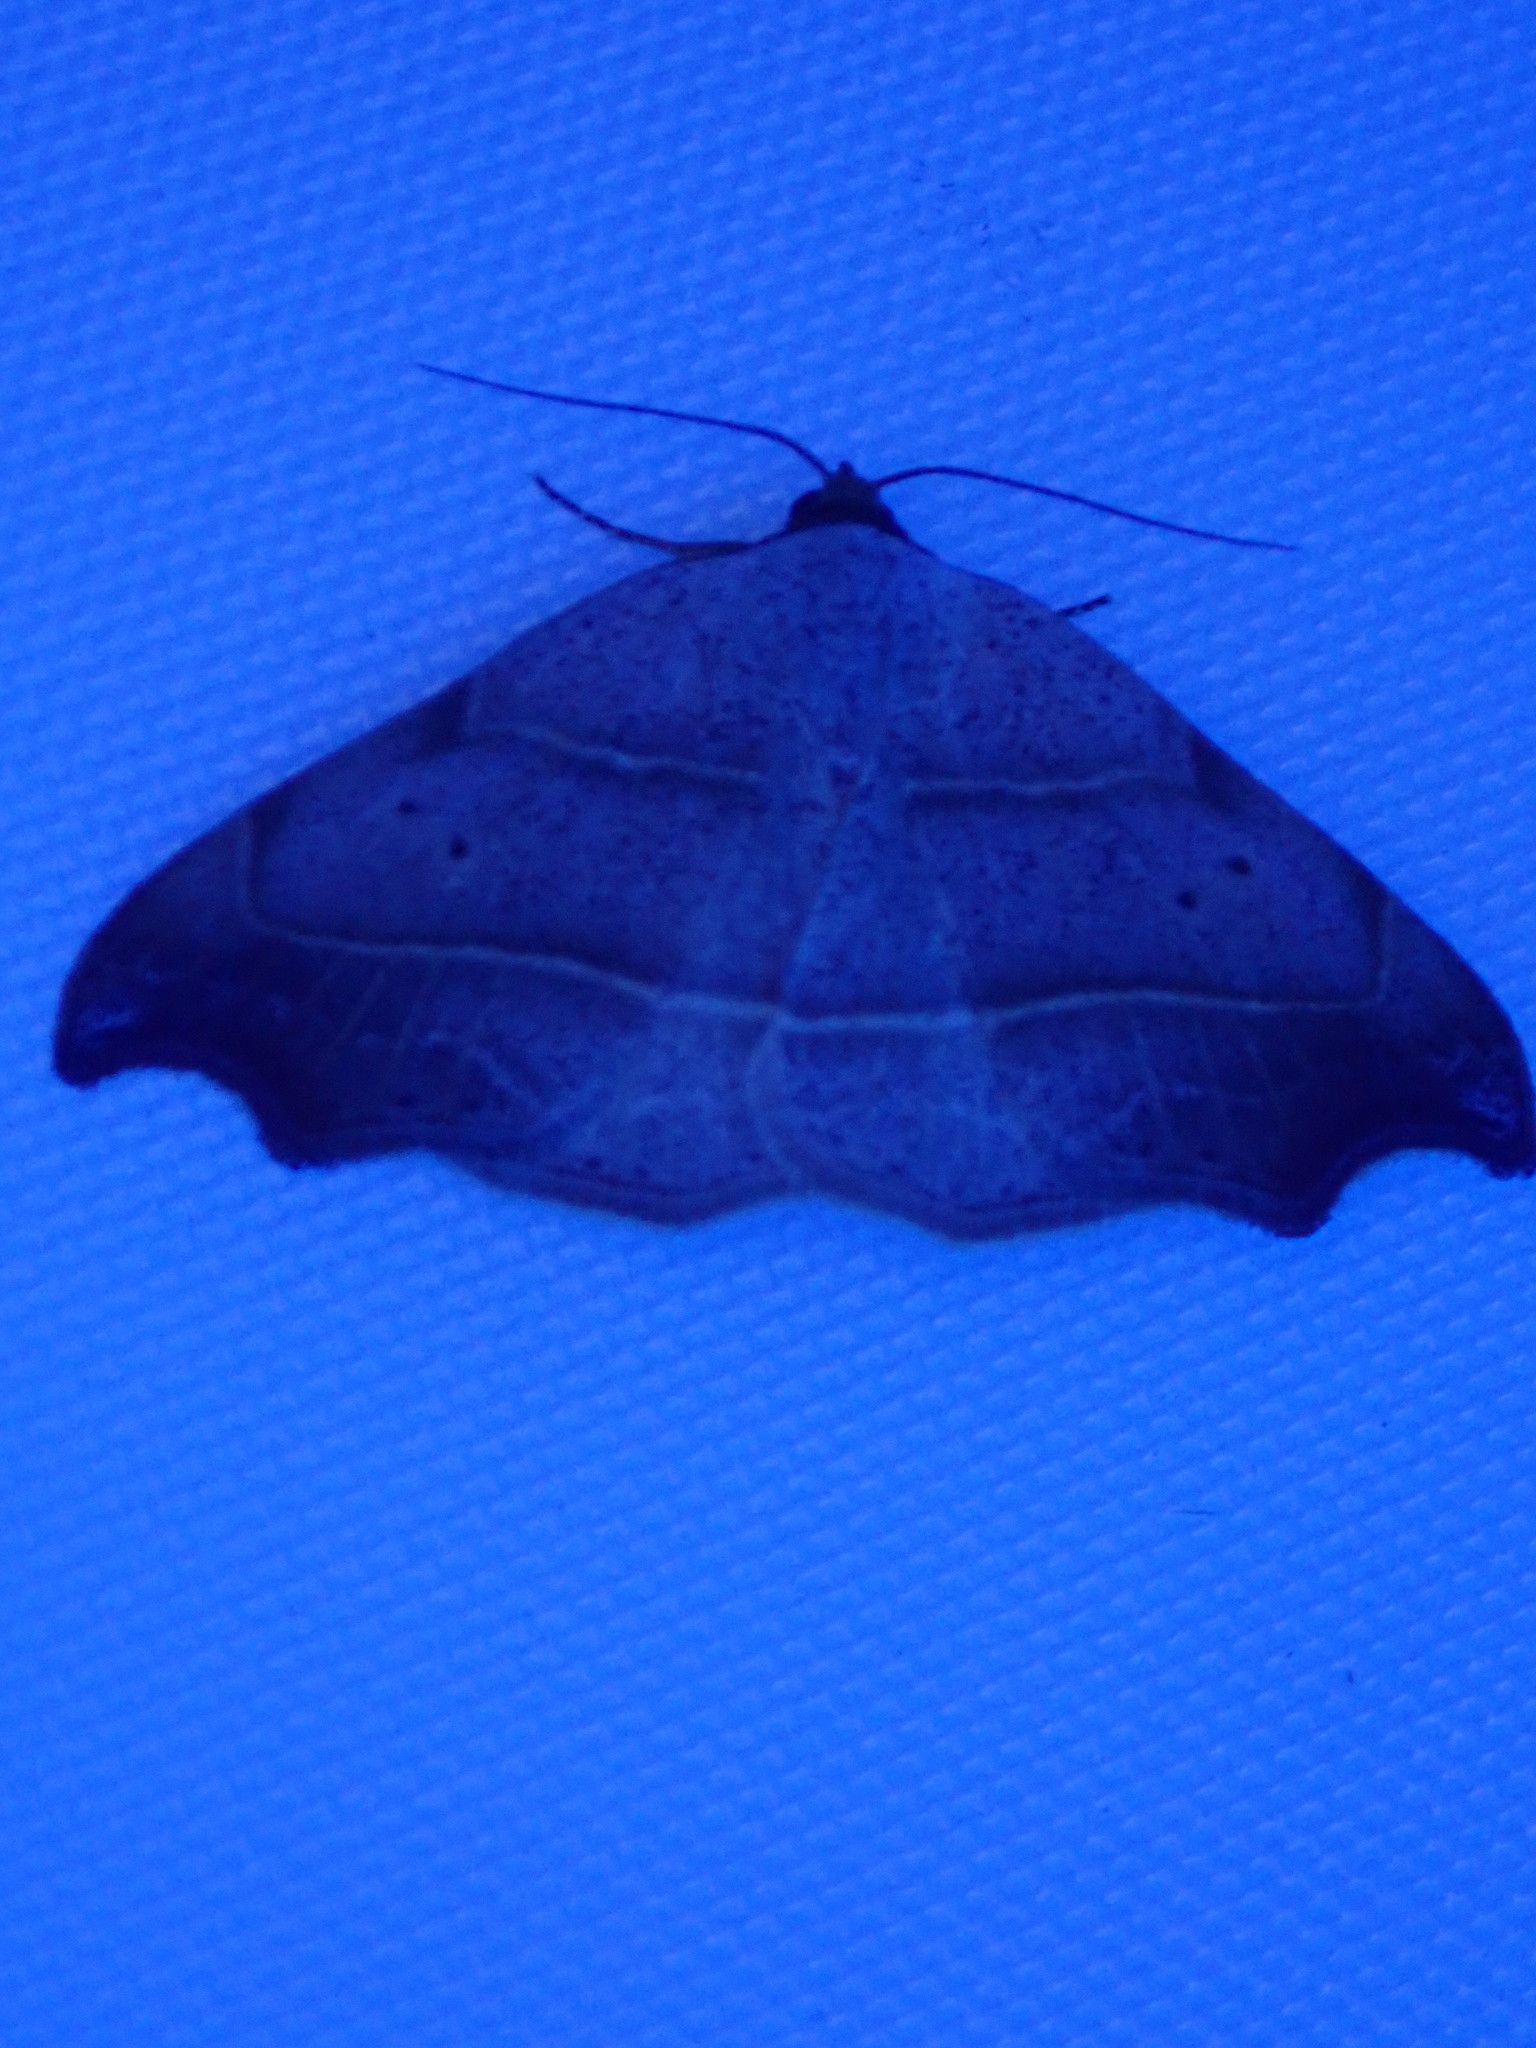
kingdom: Animalia
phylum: Arthropoda
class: Insecta
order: Lepidoptera
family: Erebidae
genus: Laspeyria
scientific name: Laspeyria flexula
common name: Beautiful hook-tip
